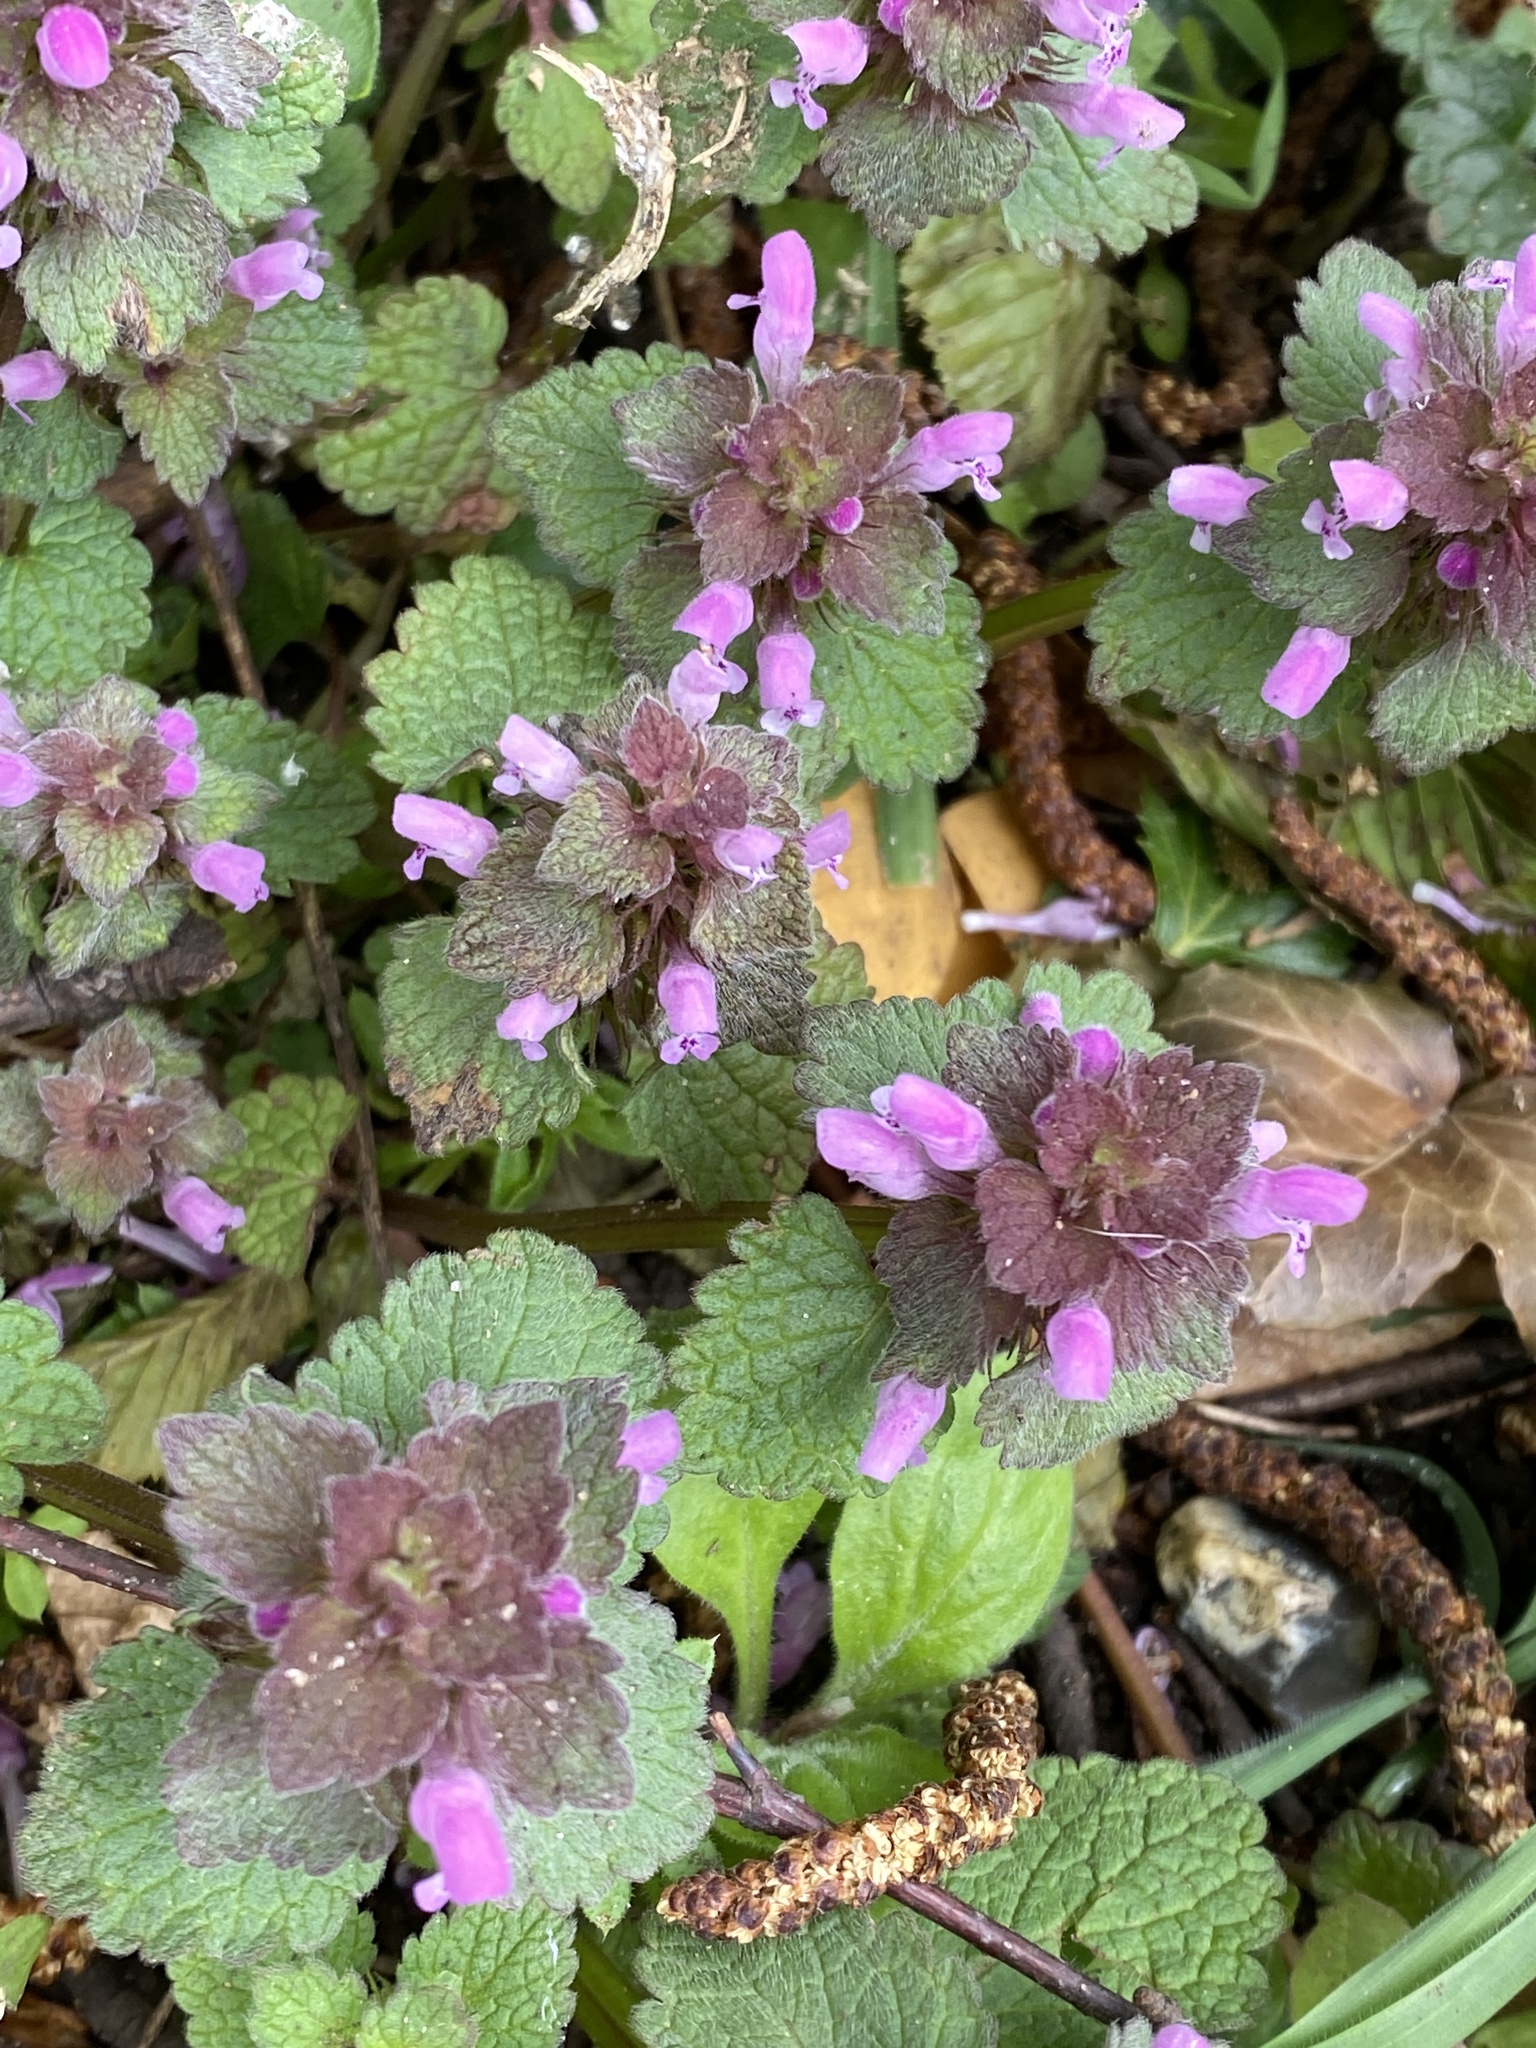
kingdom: Plantae
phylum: Tracheophyta
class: Magnoliopsida
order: Lamiales
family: Lamiaceae
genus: Lamium
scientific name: Lamium purpureum
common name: Red dead-nettle
